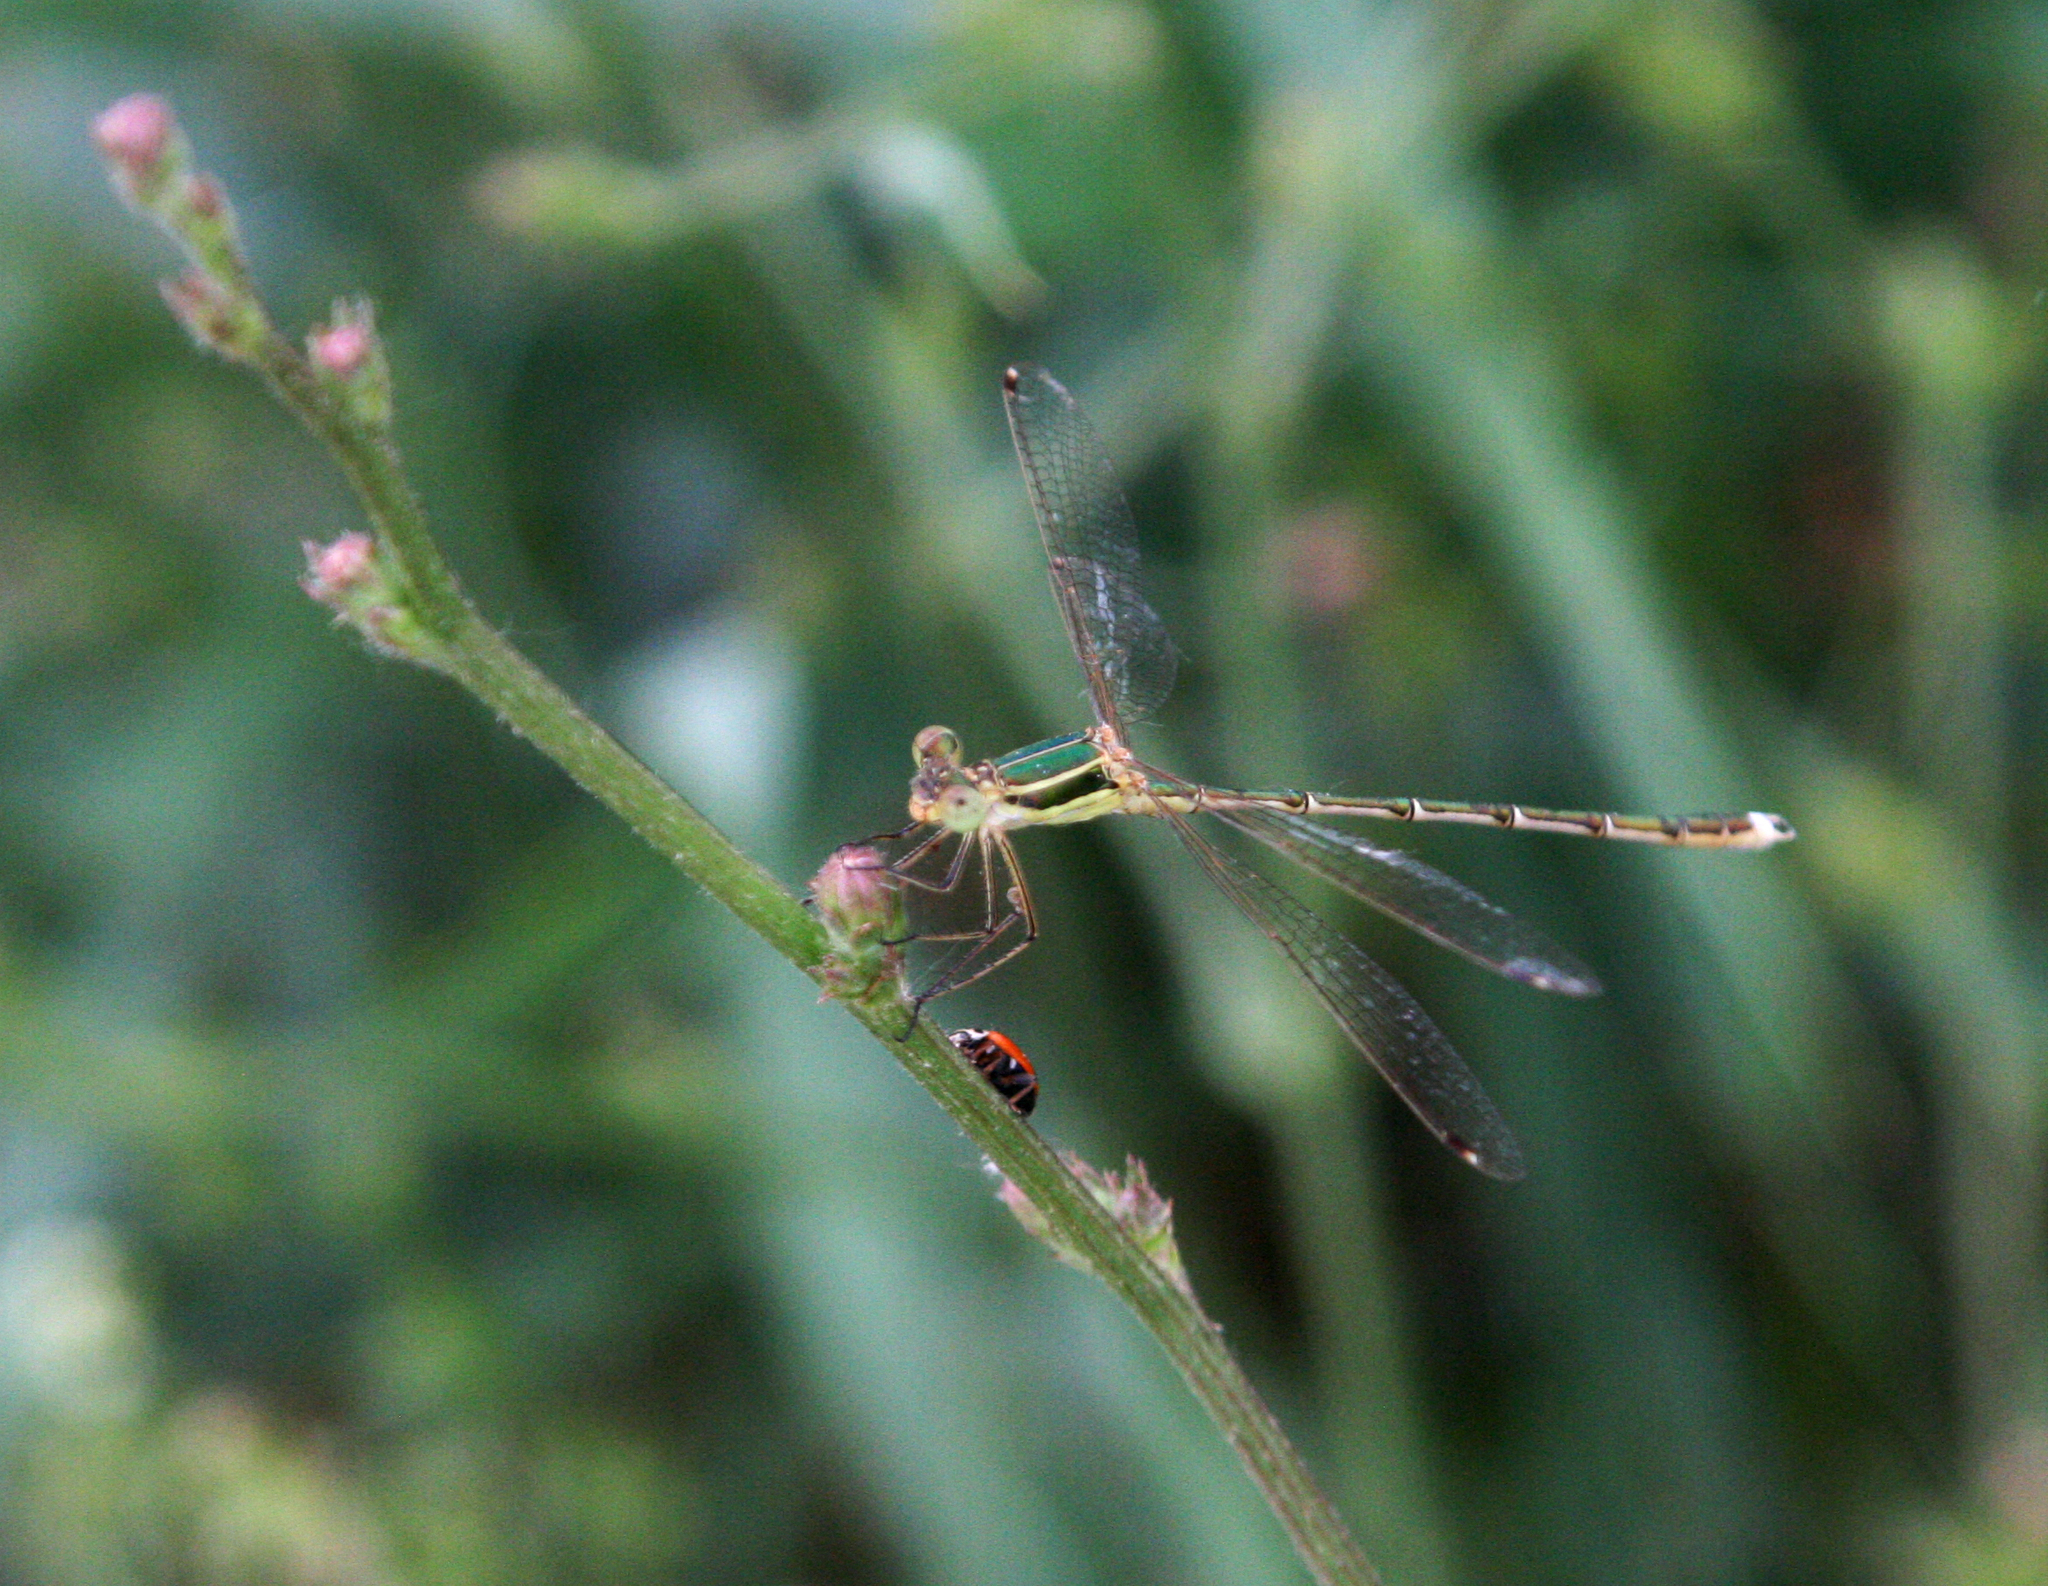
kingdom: Animalia
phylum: Arthropoda
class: Insecta
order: Odonata
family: Lestidae
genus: Lestes
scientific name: Lestes barbarus
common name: Migrant spreadwing
